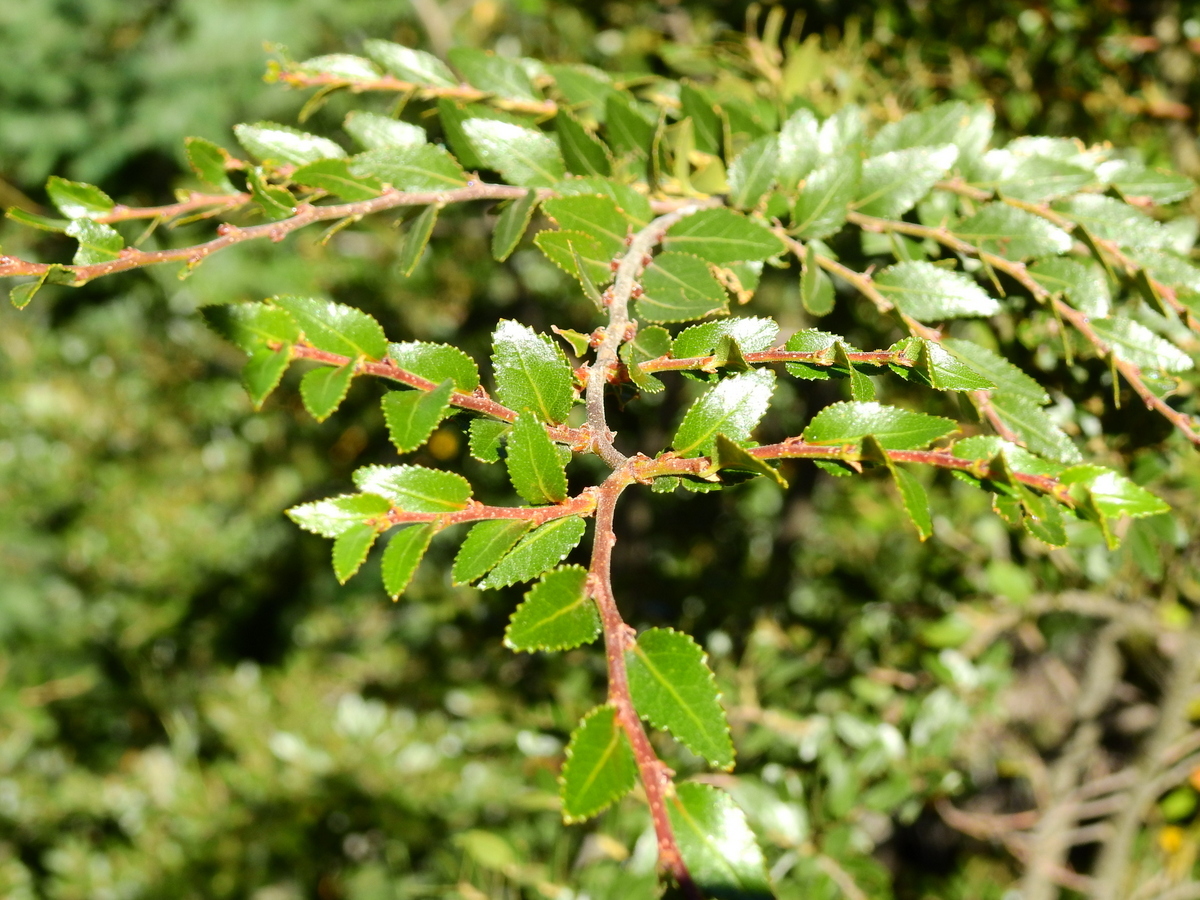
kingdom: Plantae
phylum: Tracheophyta
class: Magnoliopsida
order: Fagales
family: Nothofagaceae
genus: Nothofagus
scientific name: Nothofagus dombeyi
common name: Coigue
